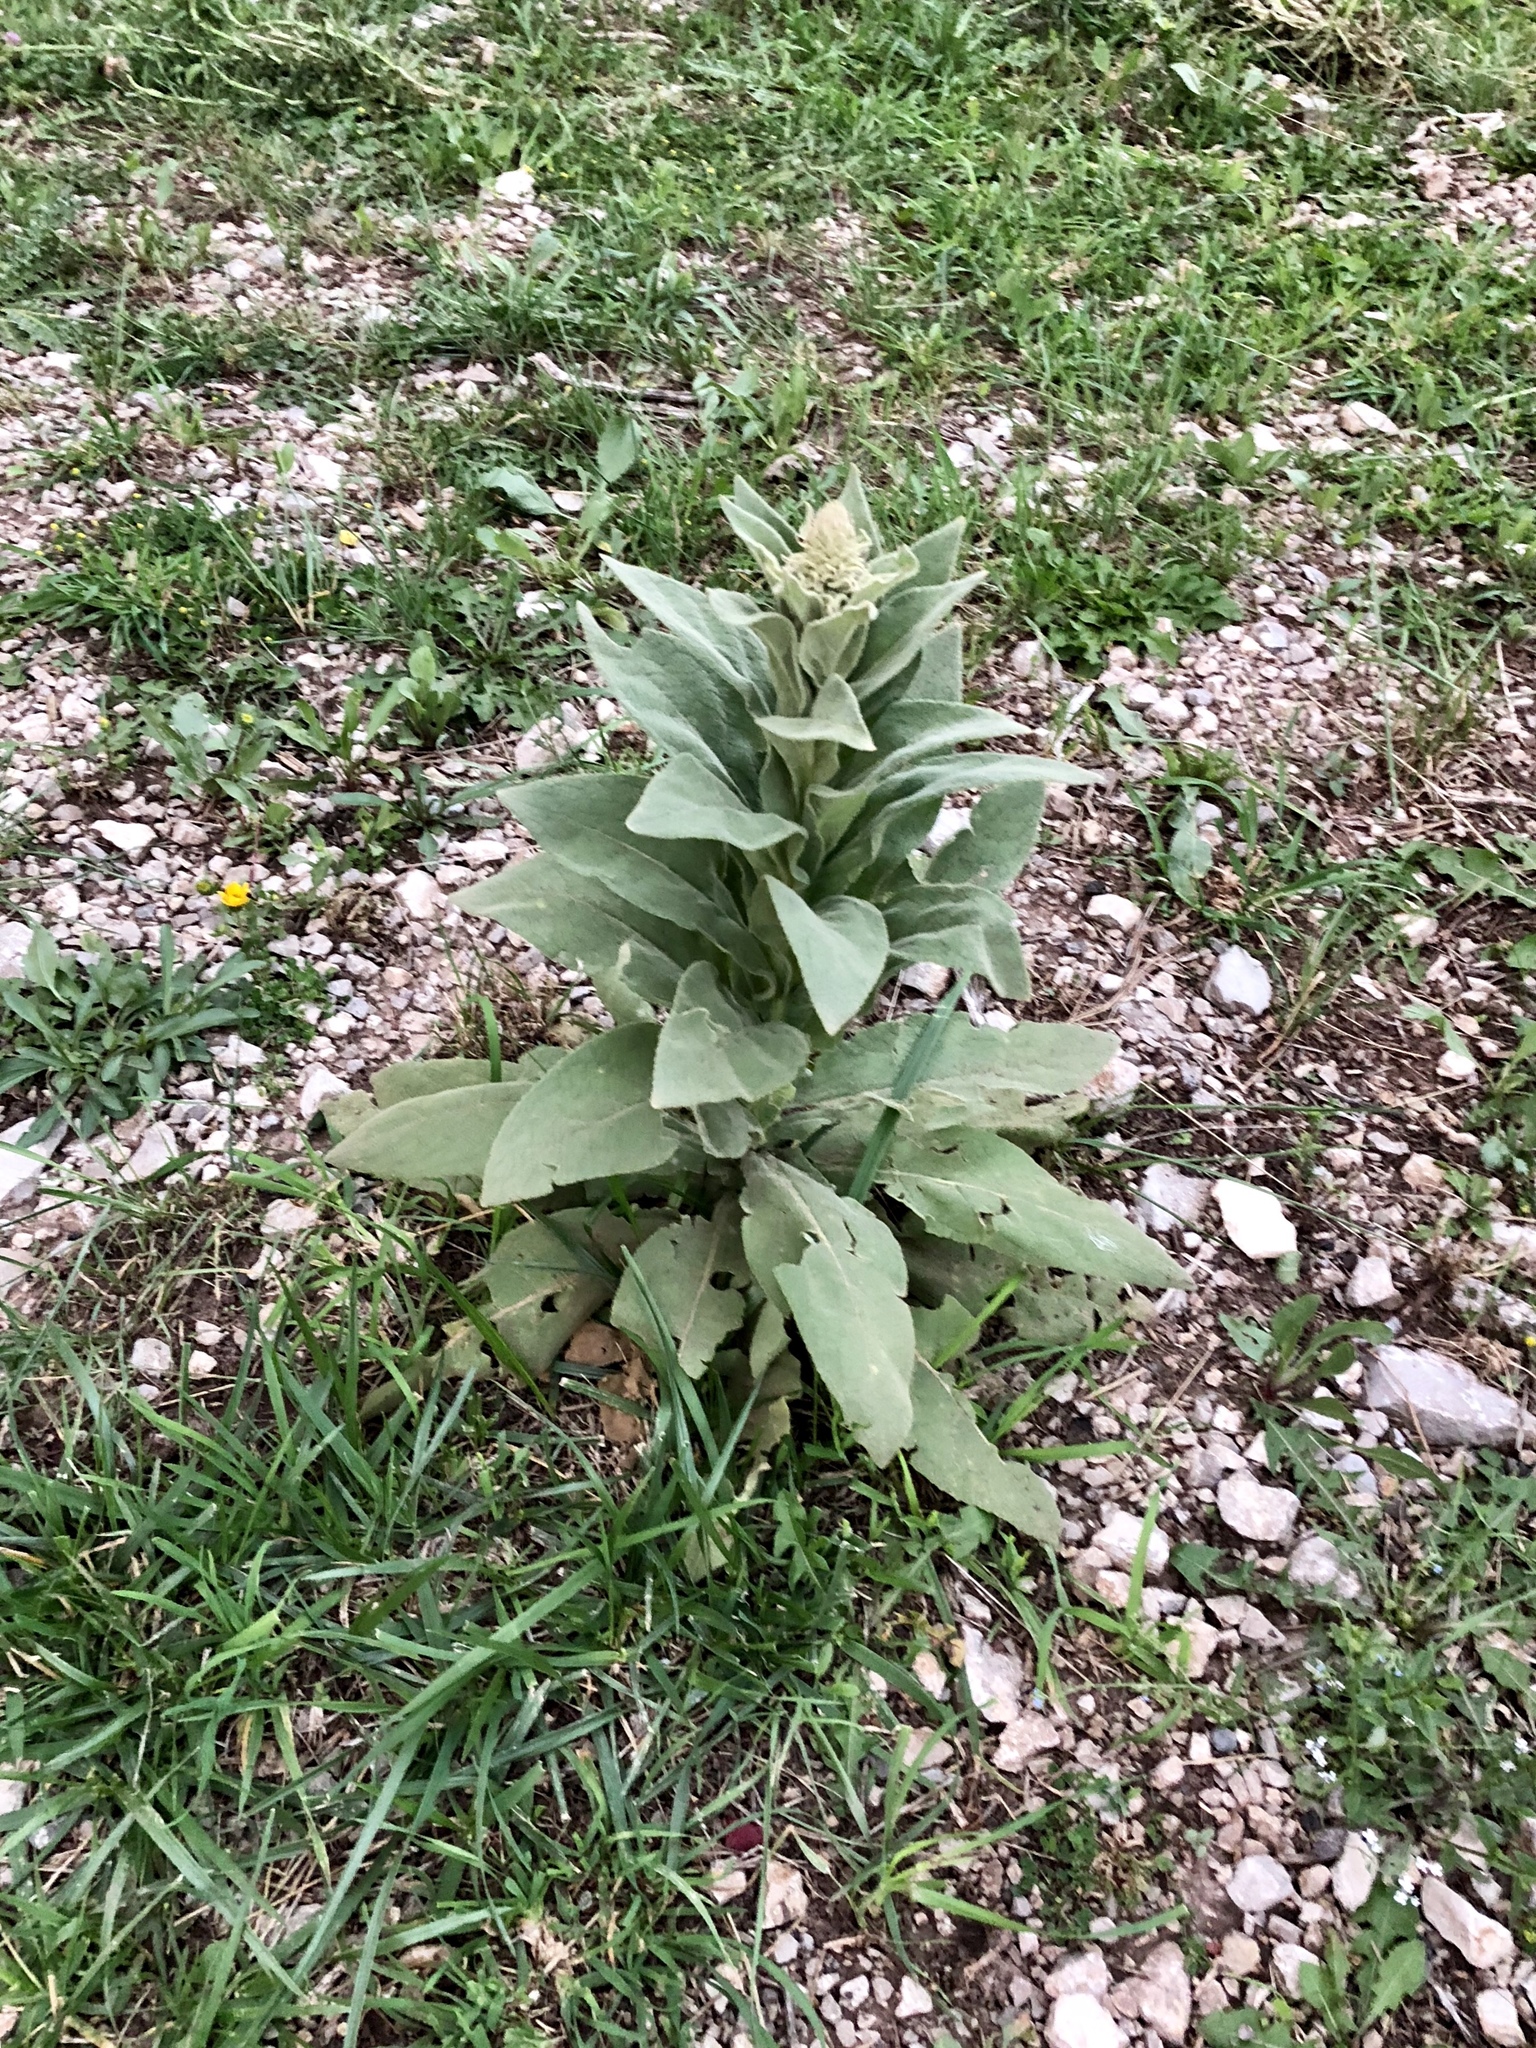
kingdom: Plantae
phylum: Tracheophyta
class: Magnoliopsida
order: Lamiales
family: Scrophulariaceae
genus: Verbascum
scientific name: Verbascum thapsus
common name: Common mullein
